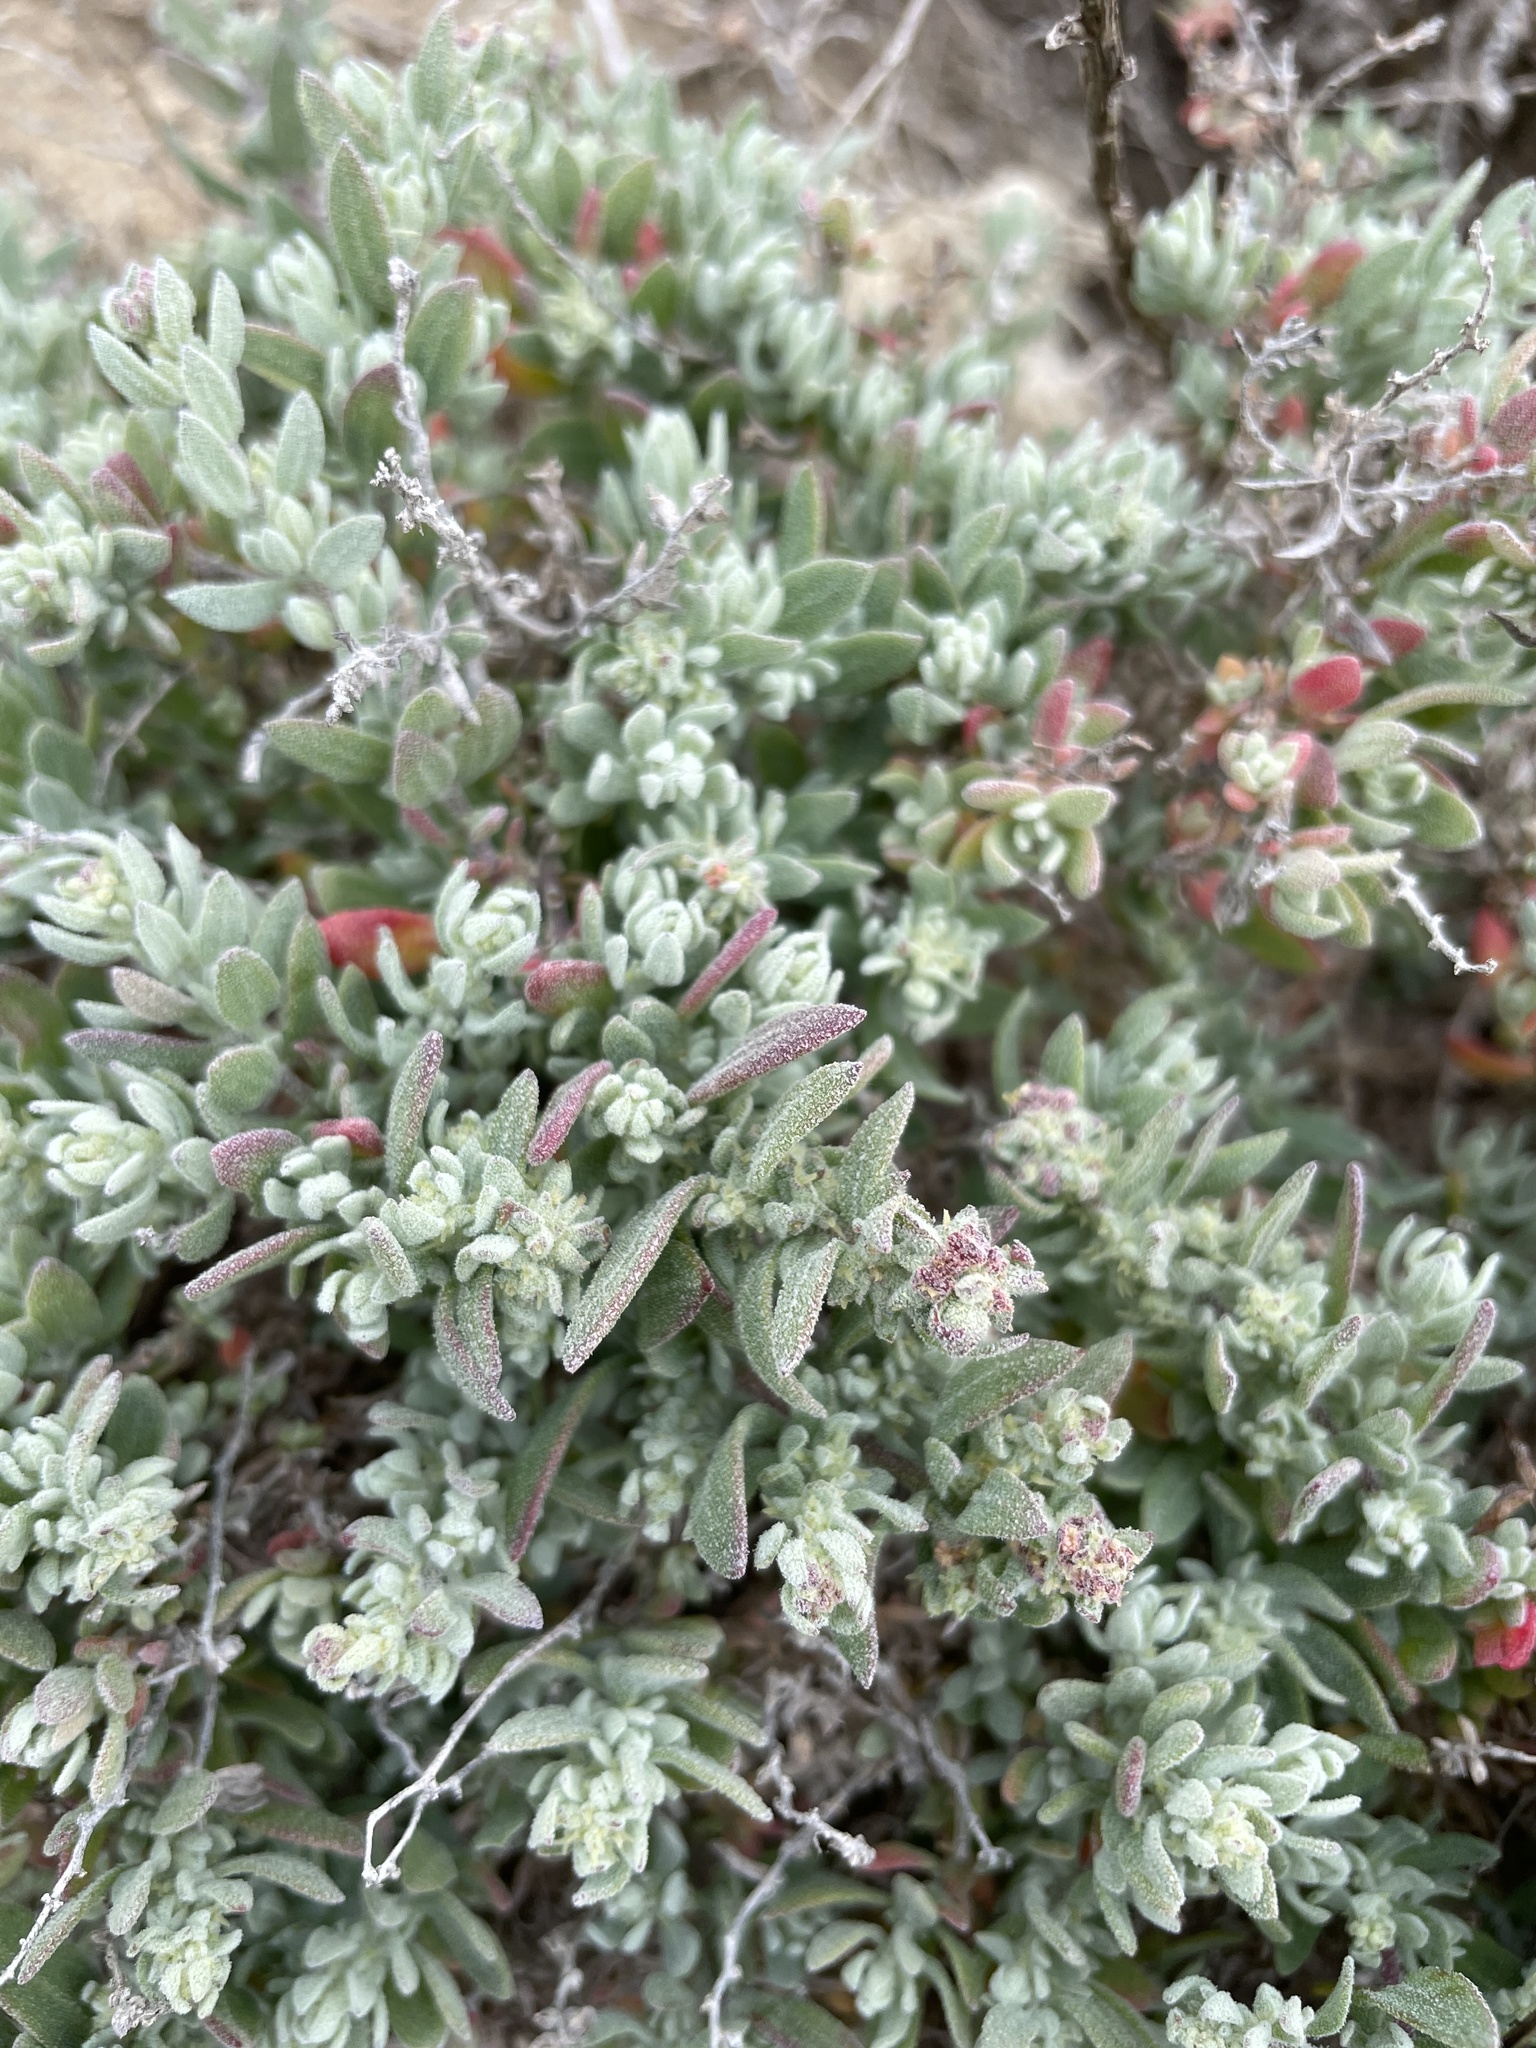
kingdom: Plantae
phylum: Tracheophyta
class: Magnoliopsida
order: Caryophyllales
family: Amaranthaceae
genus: Extriplex
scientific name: Extriplex californica
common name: California saltbush
